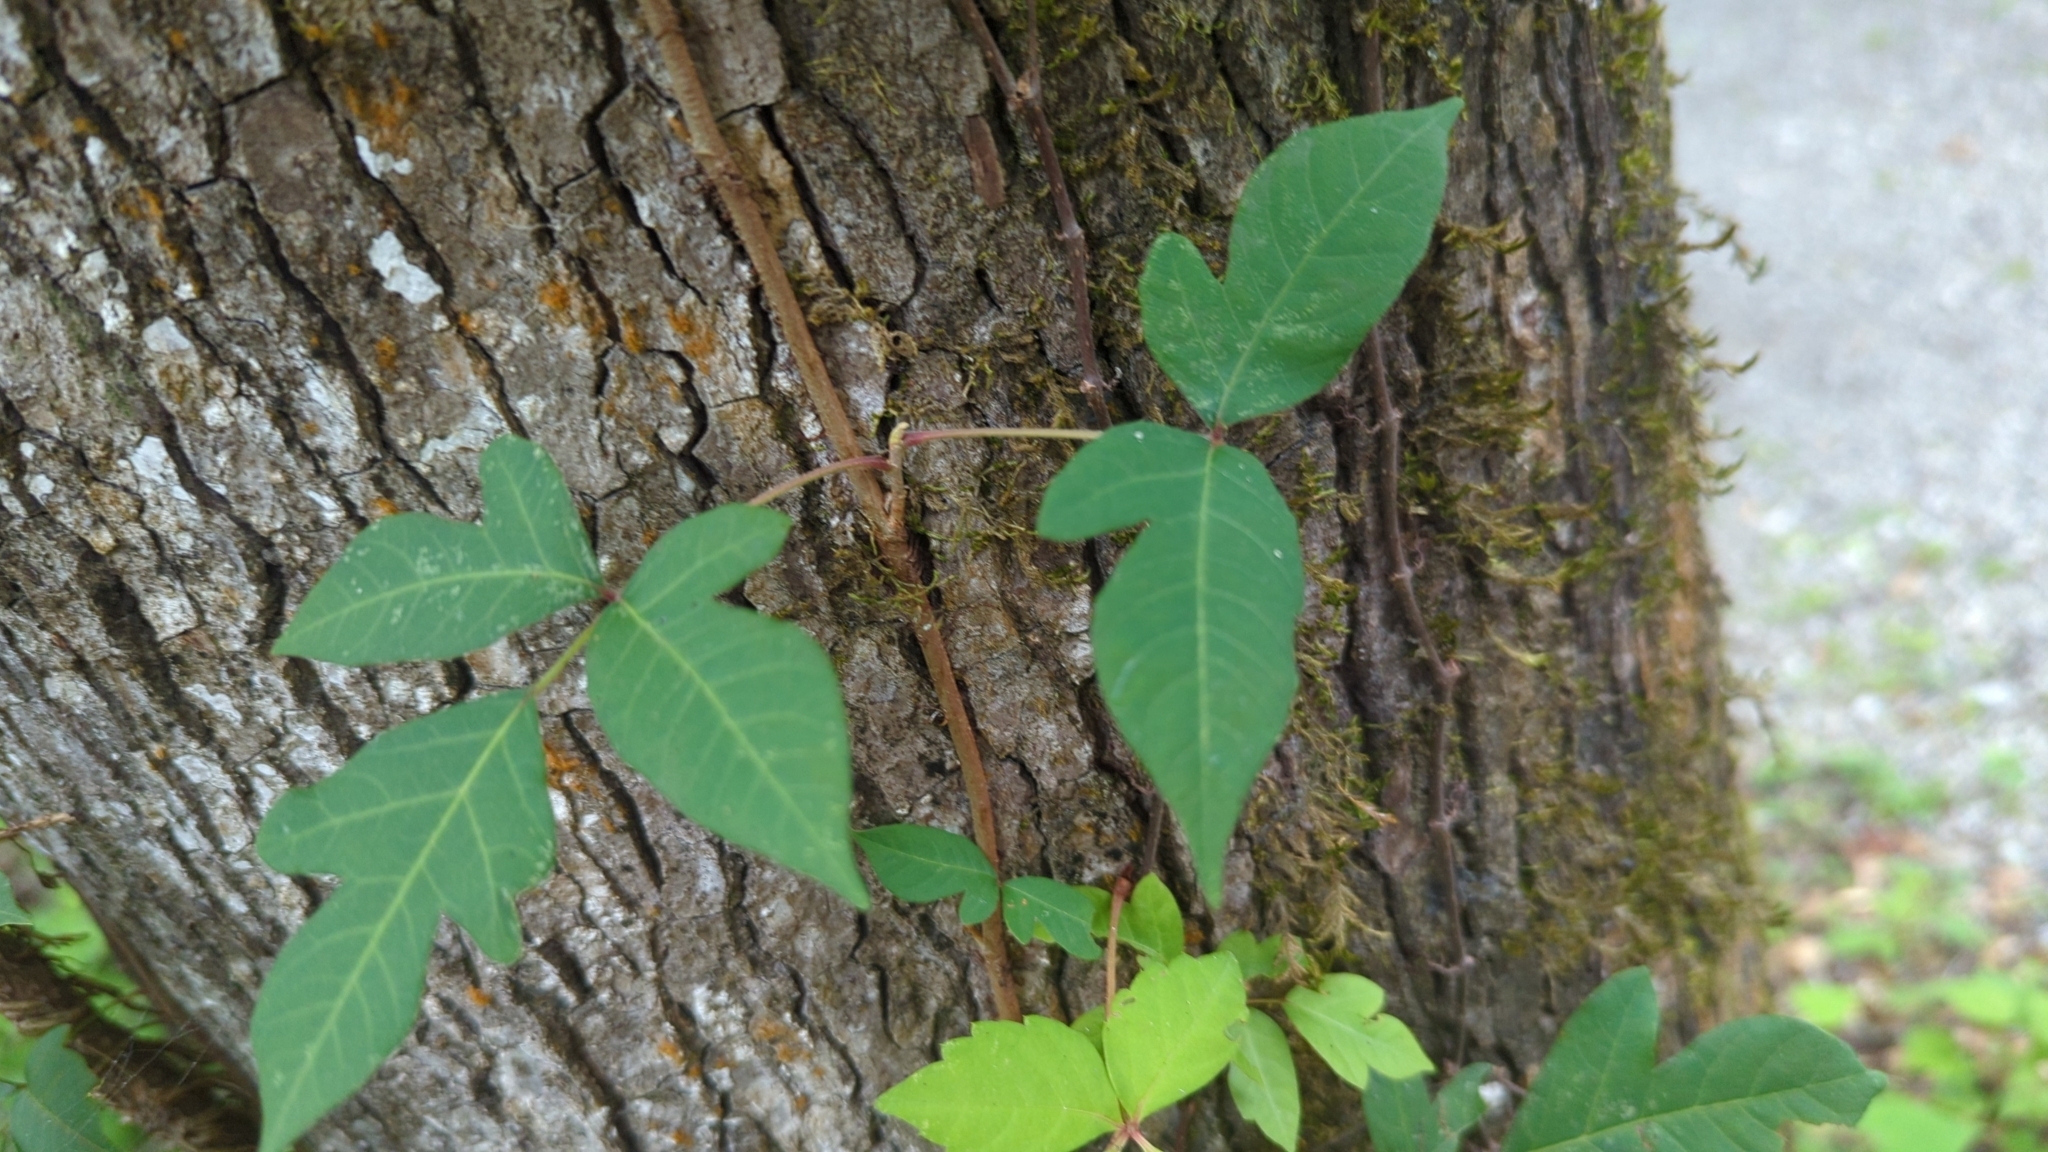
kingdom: Plantae
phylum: Tracheophyta
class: Magnoliopsida
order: Sapindales
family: Anacardiaceae
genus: Toxicodendron
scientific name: Toxicodendron radicans
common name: Poison ivy
